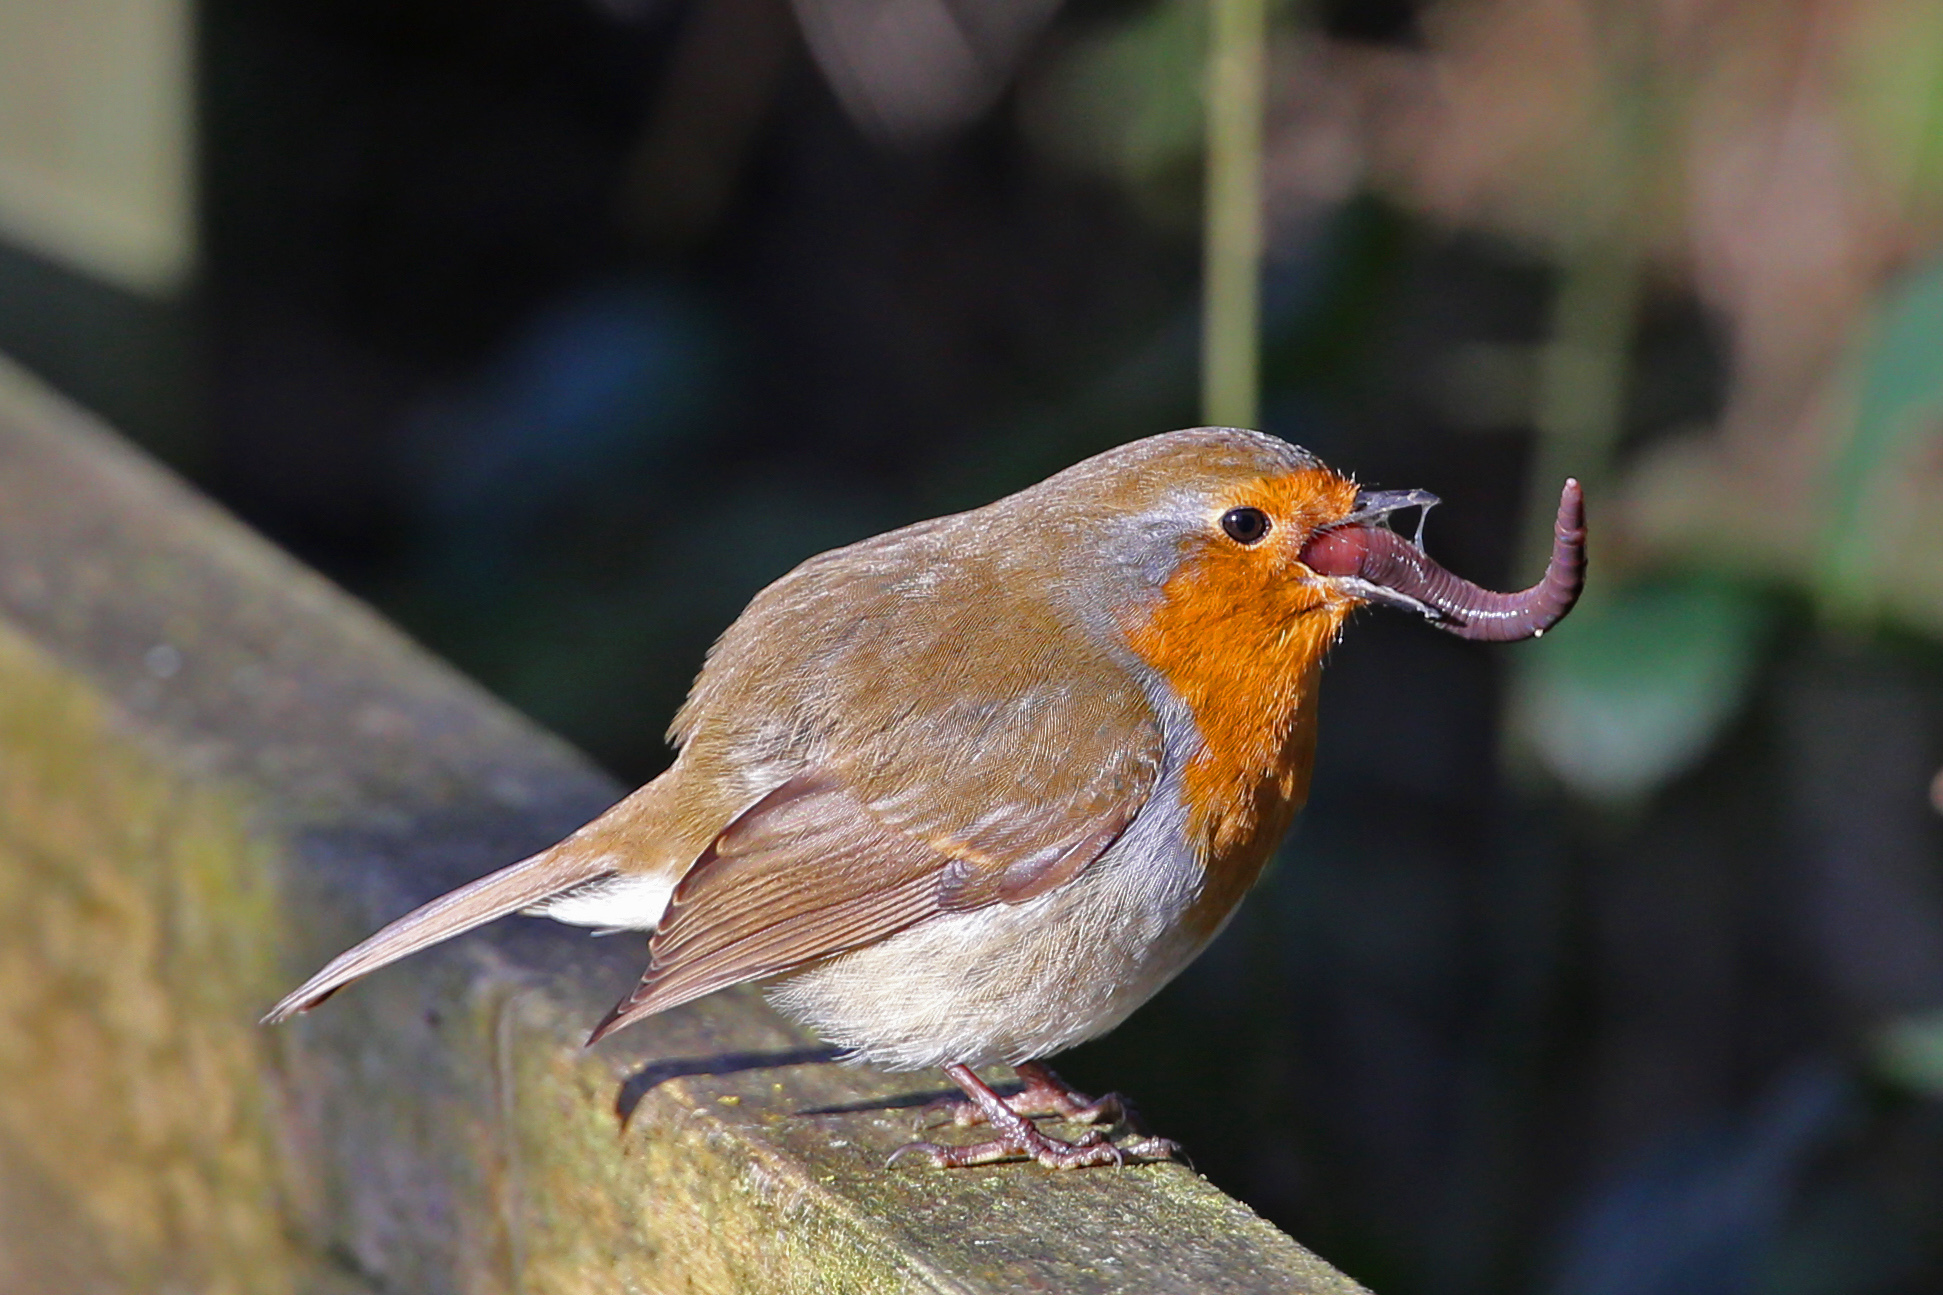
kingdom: Animalia
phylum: Chordata
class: Aves
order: Passeriformes
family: Muscicapidae
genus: Erithacus
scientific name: Erithacus rubecula
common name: European robin
